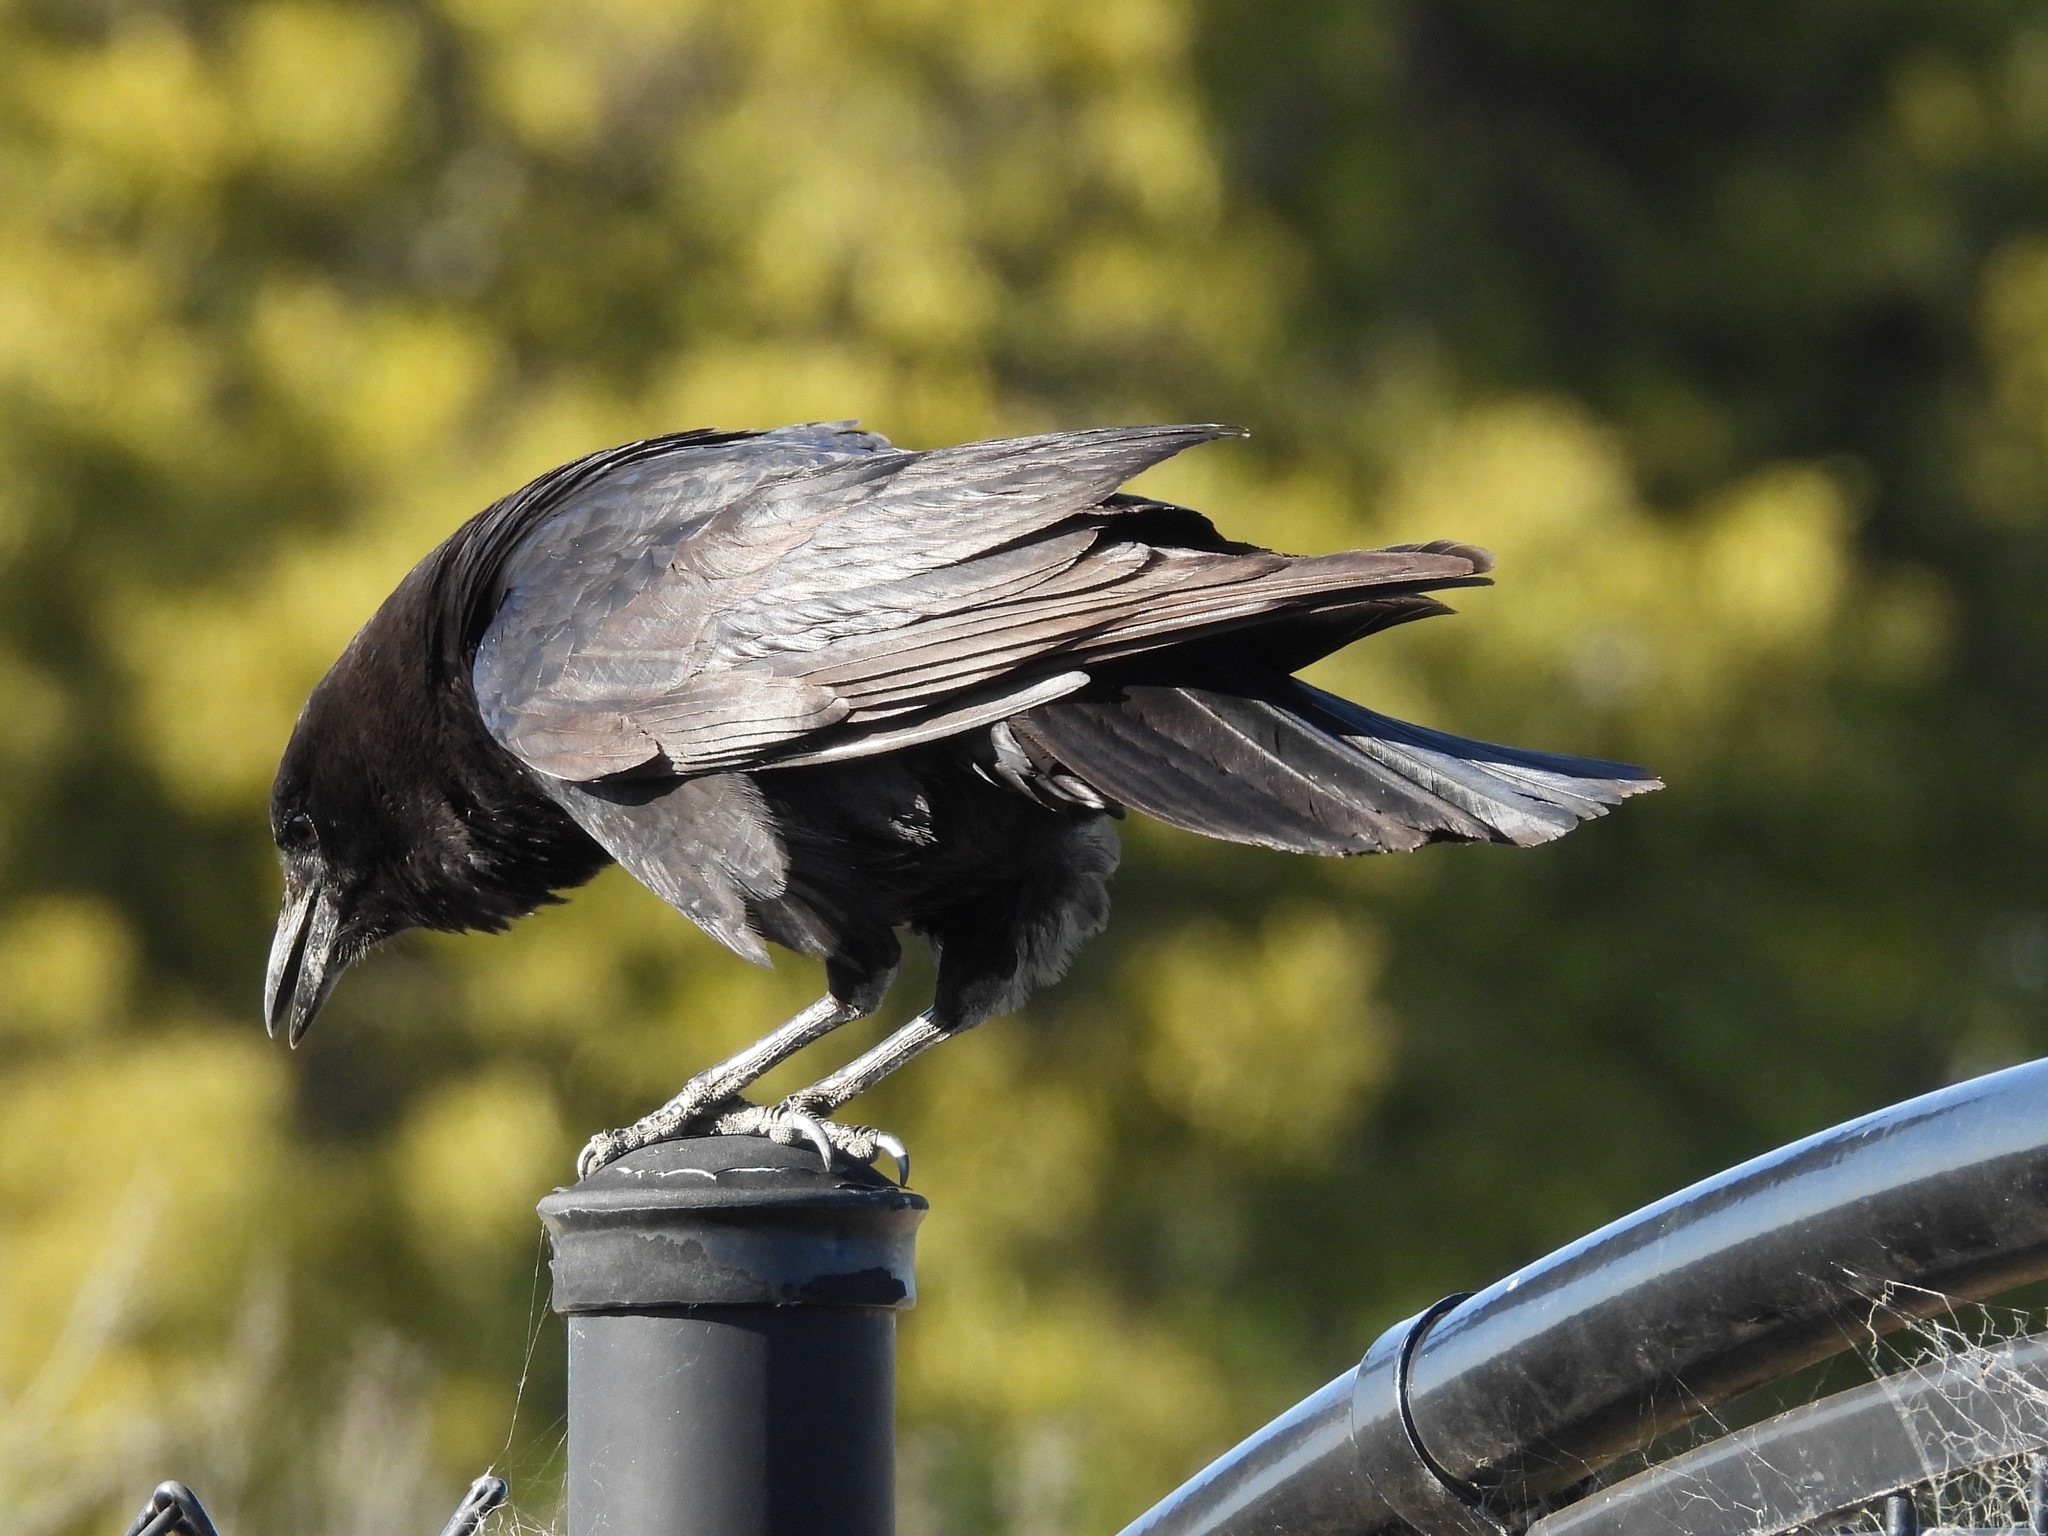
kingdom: Animalia
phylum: Chordata
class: Aves
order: Passeriformes
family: Corvidae
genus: Corvus
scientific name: Corvus brachyrhynchos
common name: American crow
